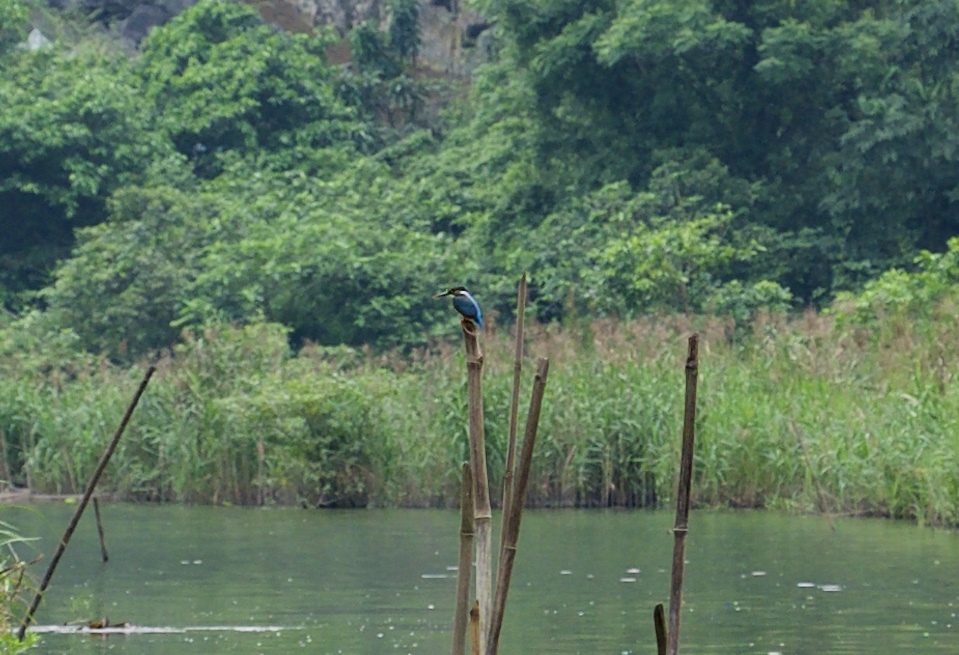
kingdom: Animalia
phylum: Chordata
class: Aves
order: Coraciiformes
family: Alcedinidae
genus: Alcedo
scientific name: Alcedo atthis
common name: Common kingfisher
